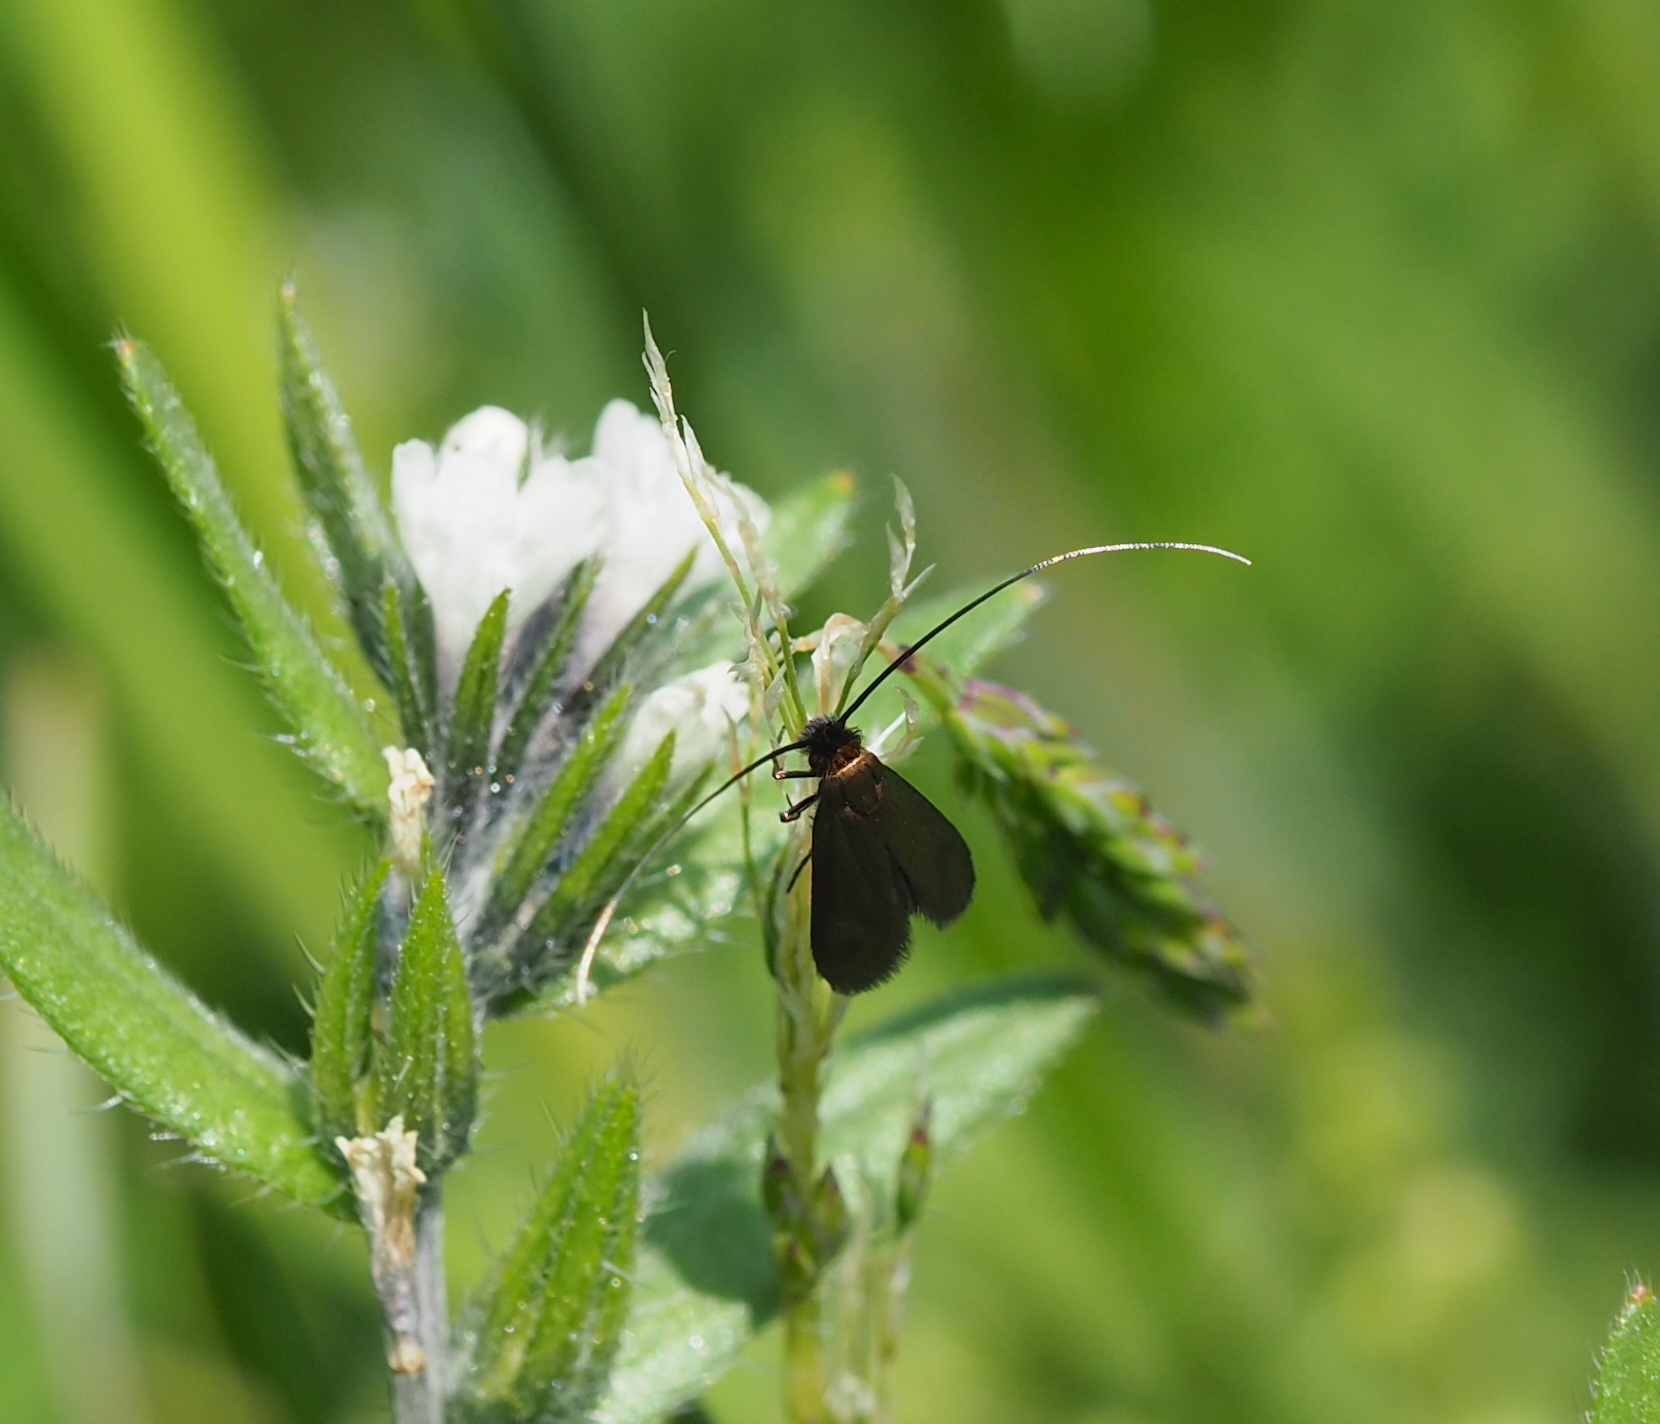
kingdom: Animalia
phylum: Arthropoda
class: Insecta
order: Lepidoptera
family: Adelidae
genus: Cauchas
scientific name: Cauchas rufimitrella
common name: Meadow long-horn
